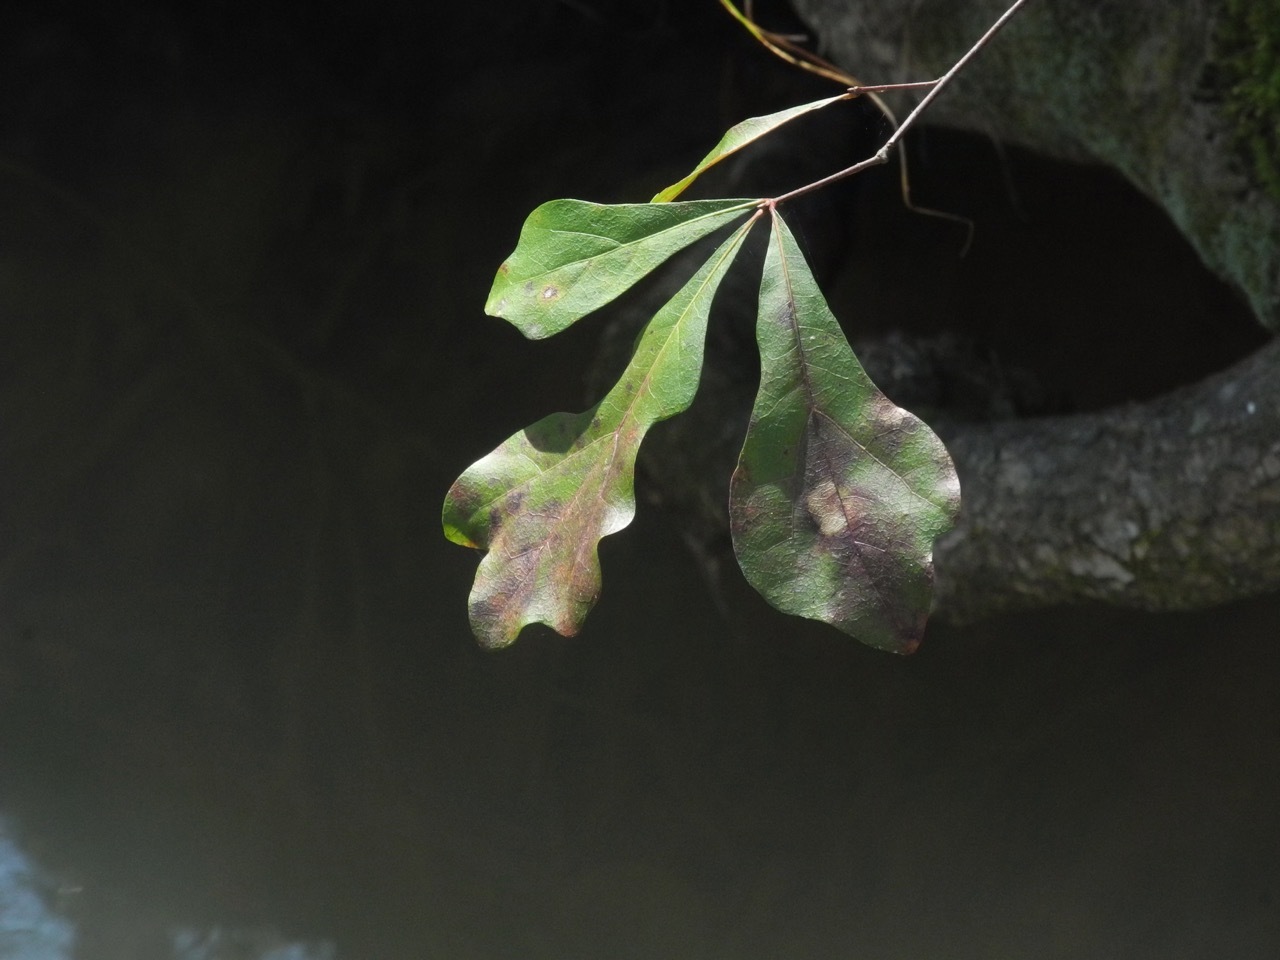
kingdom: Plantae
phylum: Tracheophyta
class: Magnoliopsida
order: Fagales
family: Fagaceae
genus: Quercus
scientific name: Quercus nigra
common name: Water oak
